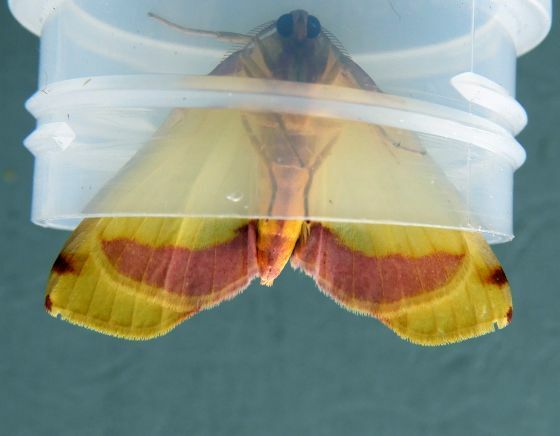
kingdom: Animalia
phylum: Arthropoda
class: Insecta
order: Lepidoptera
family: Geometridae
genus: Plagodis
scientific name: Plagodis serinaria
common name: Lemon plagodis
